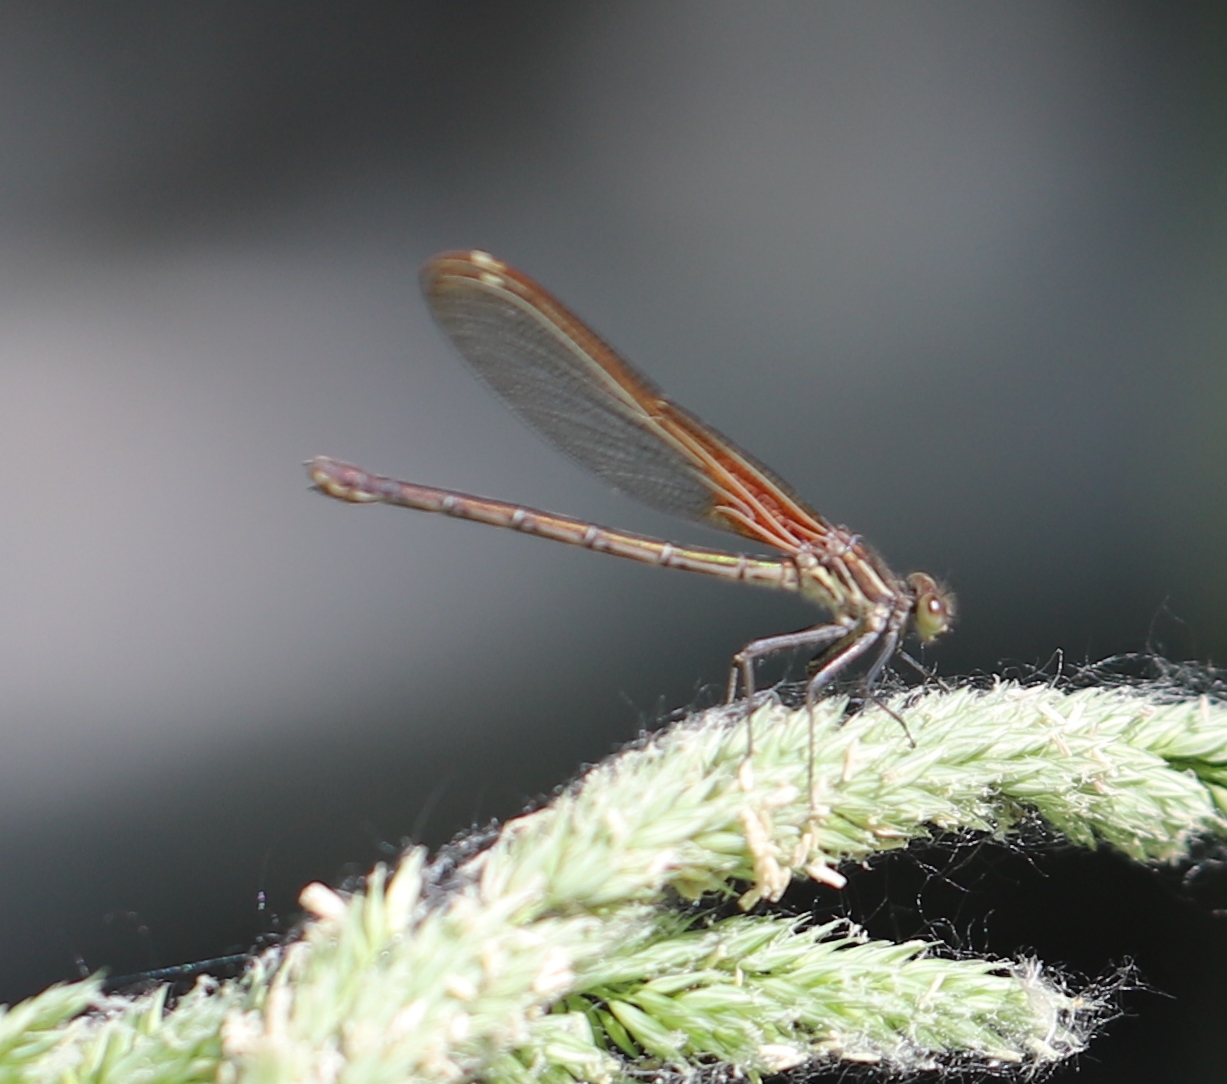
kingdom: Animalia
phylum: Arthropoda
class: Insecta
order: Odonata
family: Calopterygidae
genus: Hetaerina
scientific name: Hetaerina americana
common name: American rubyspot
